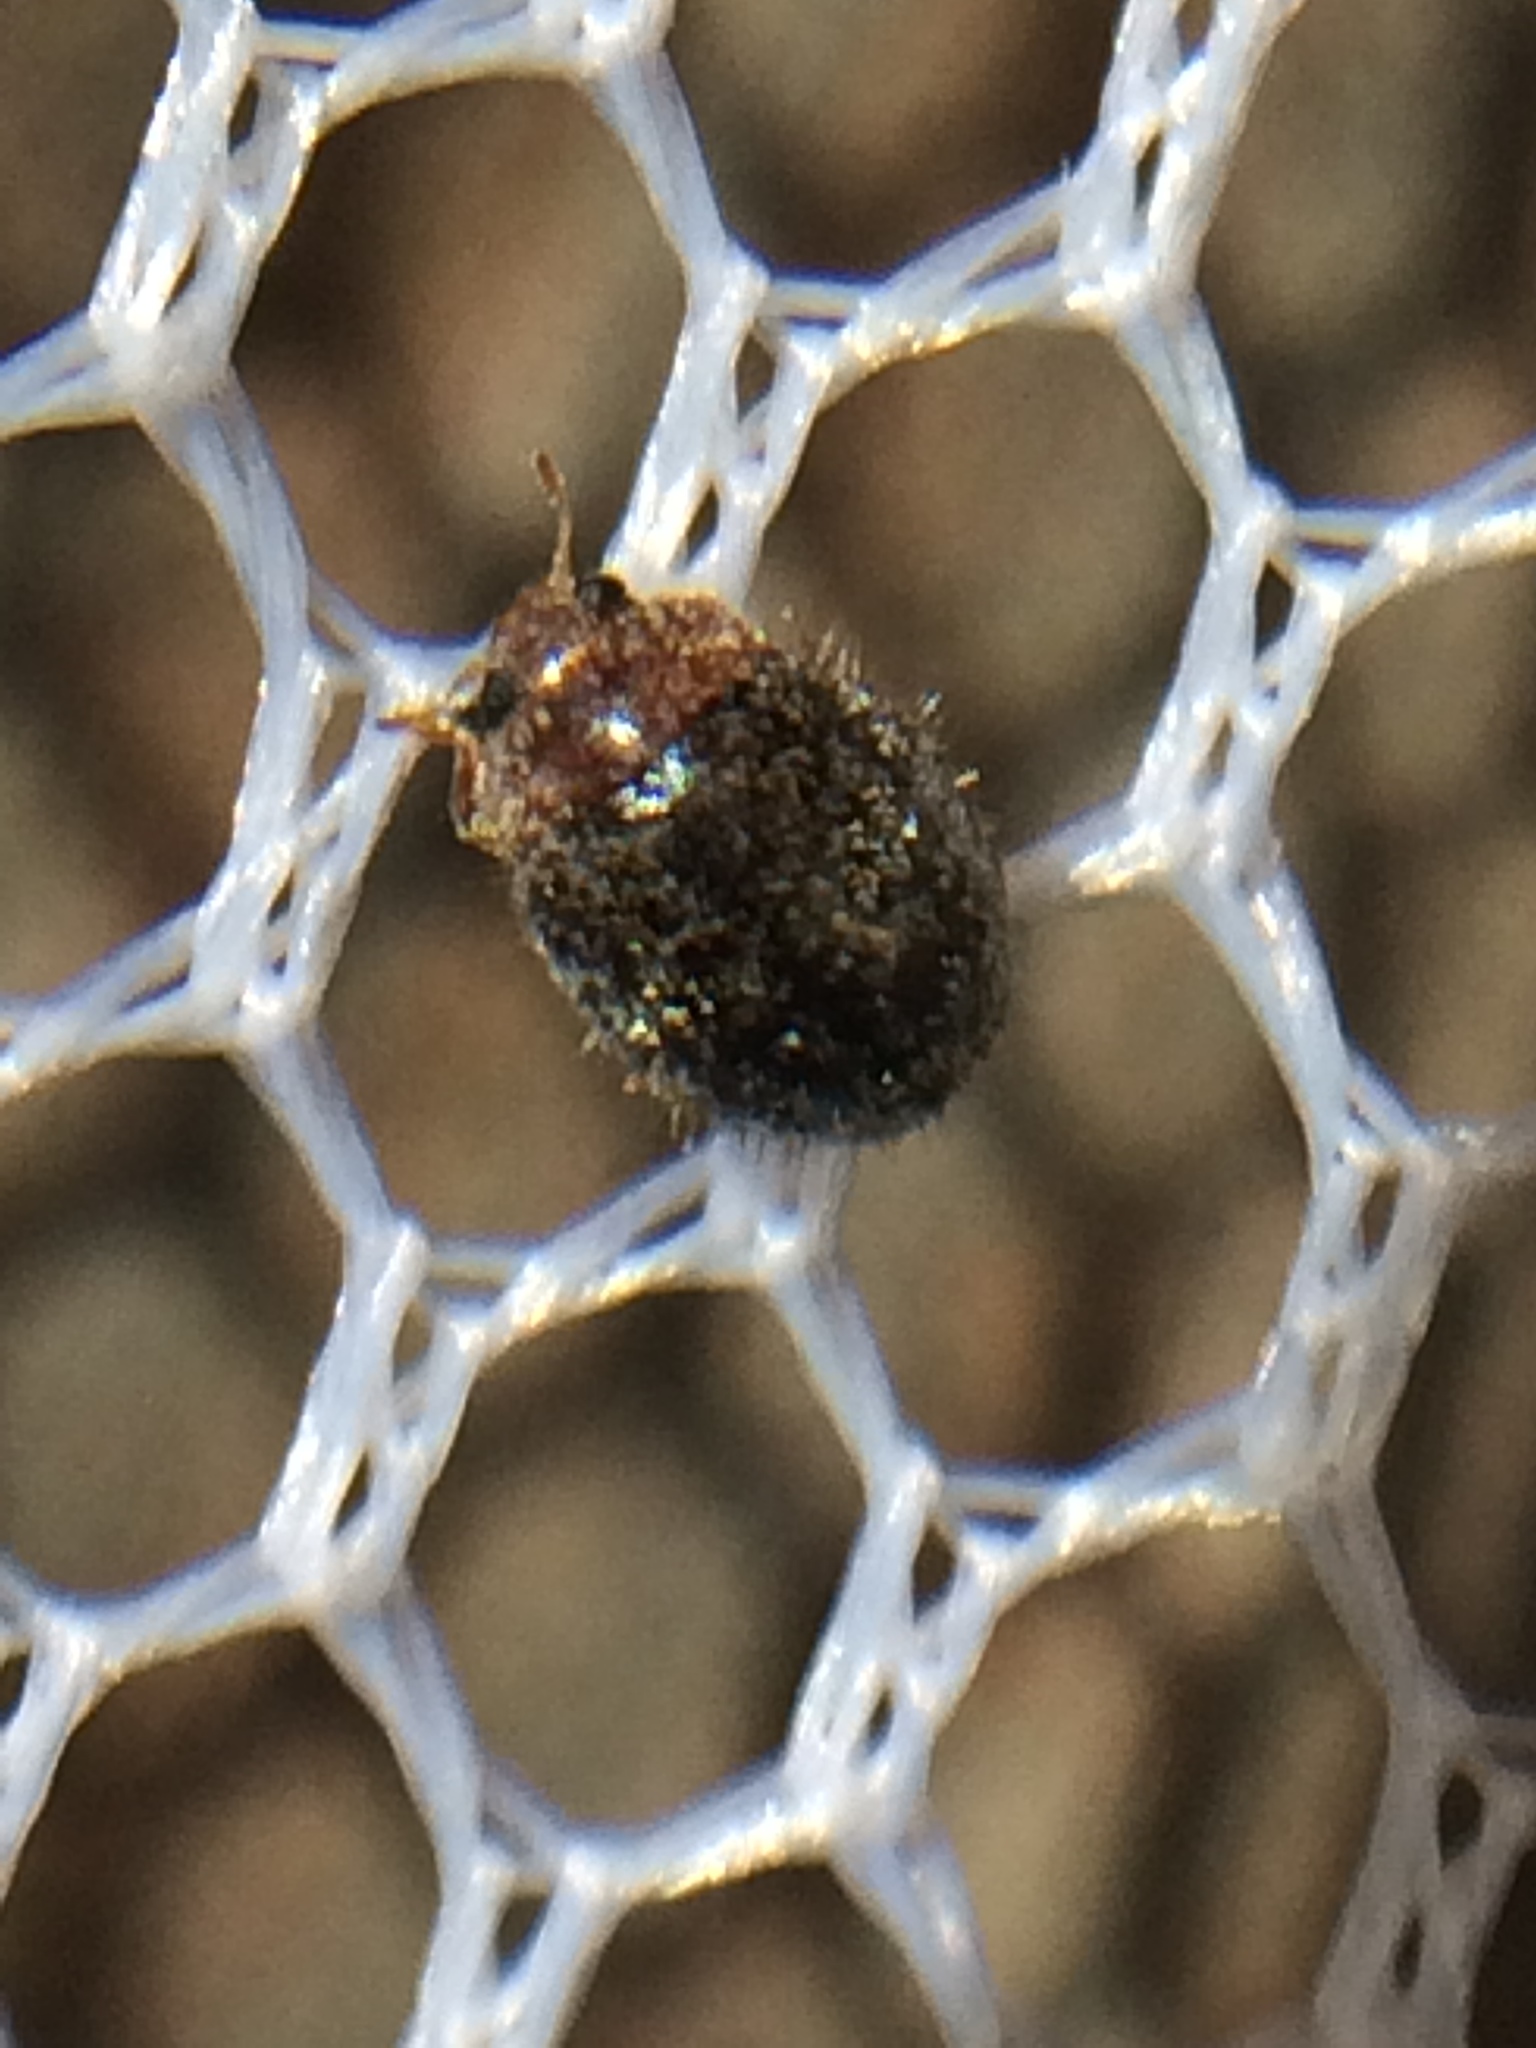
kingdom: Animalia
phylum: Arthropoda
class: Insecta
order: Coleoptera
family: Coccinellidae
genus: Rhyzobius
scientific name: Rhyzobius lophanthae
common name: Scale-eating ladybird beetle
